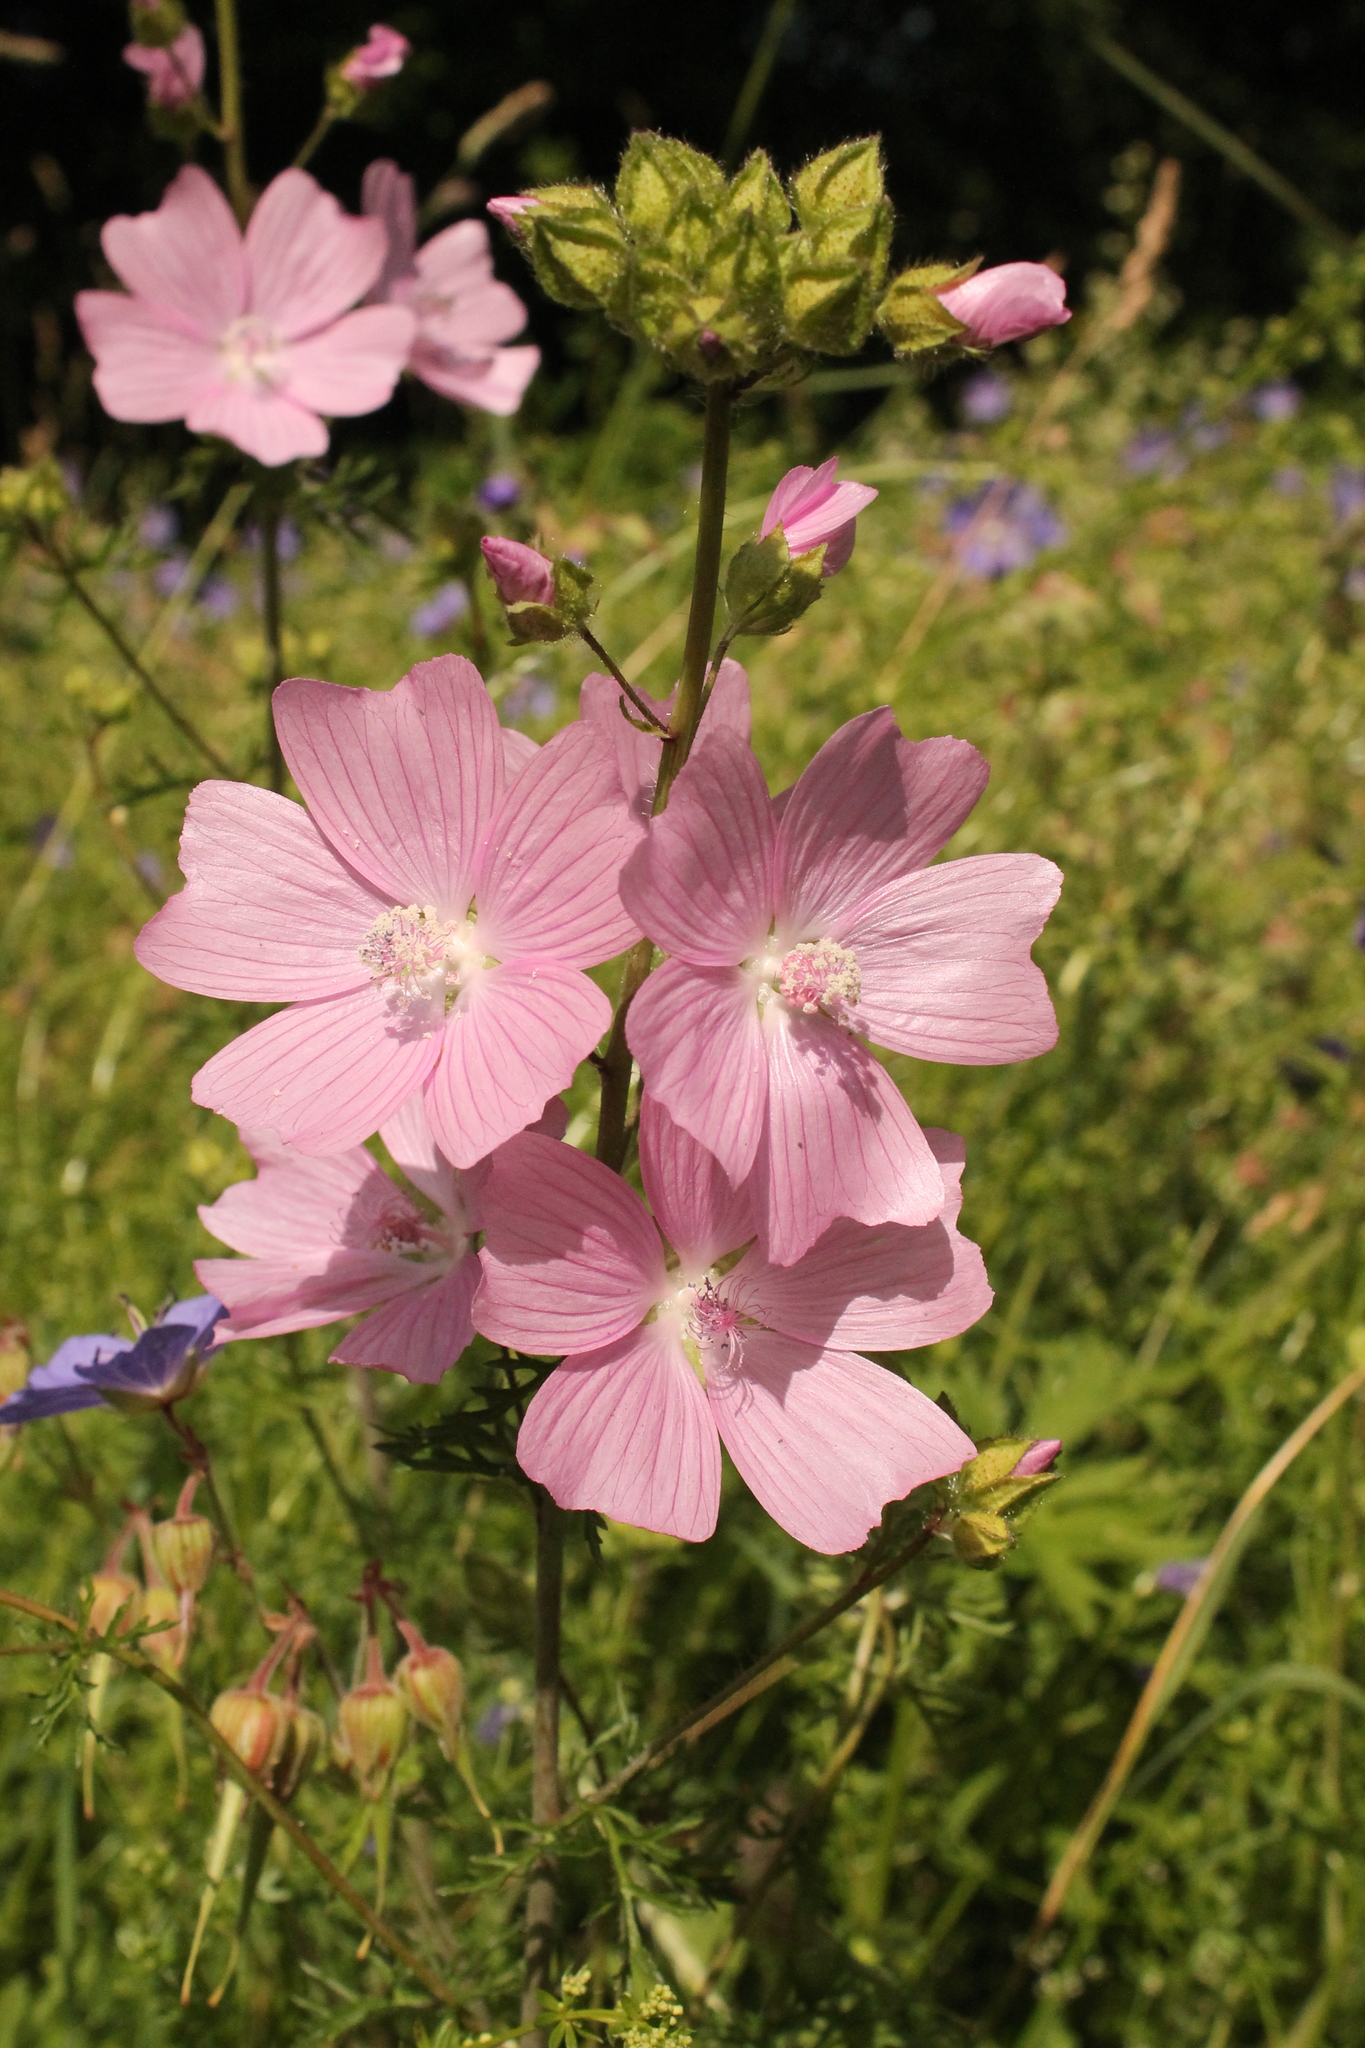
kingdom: Plantae
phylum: Tracheophyta
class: Magnoliopsida
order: Malvales
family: Malvaceae
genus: Malva
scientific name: Malva moschata
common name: Musk mallow
